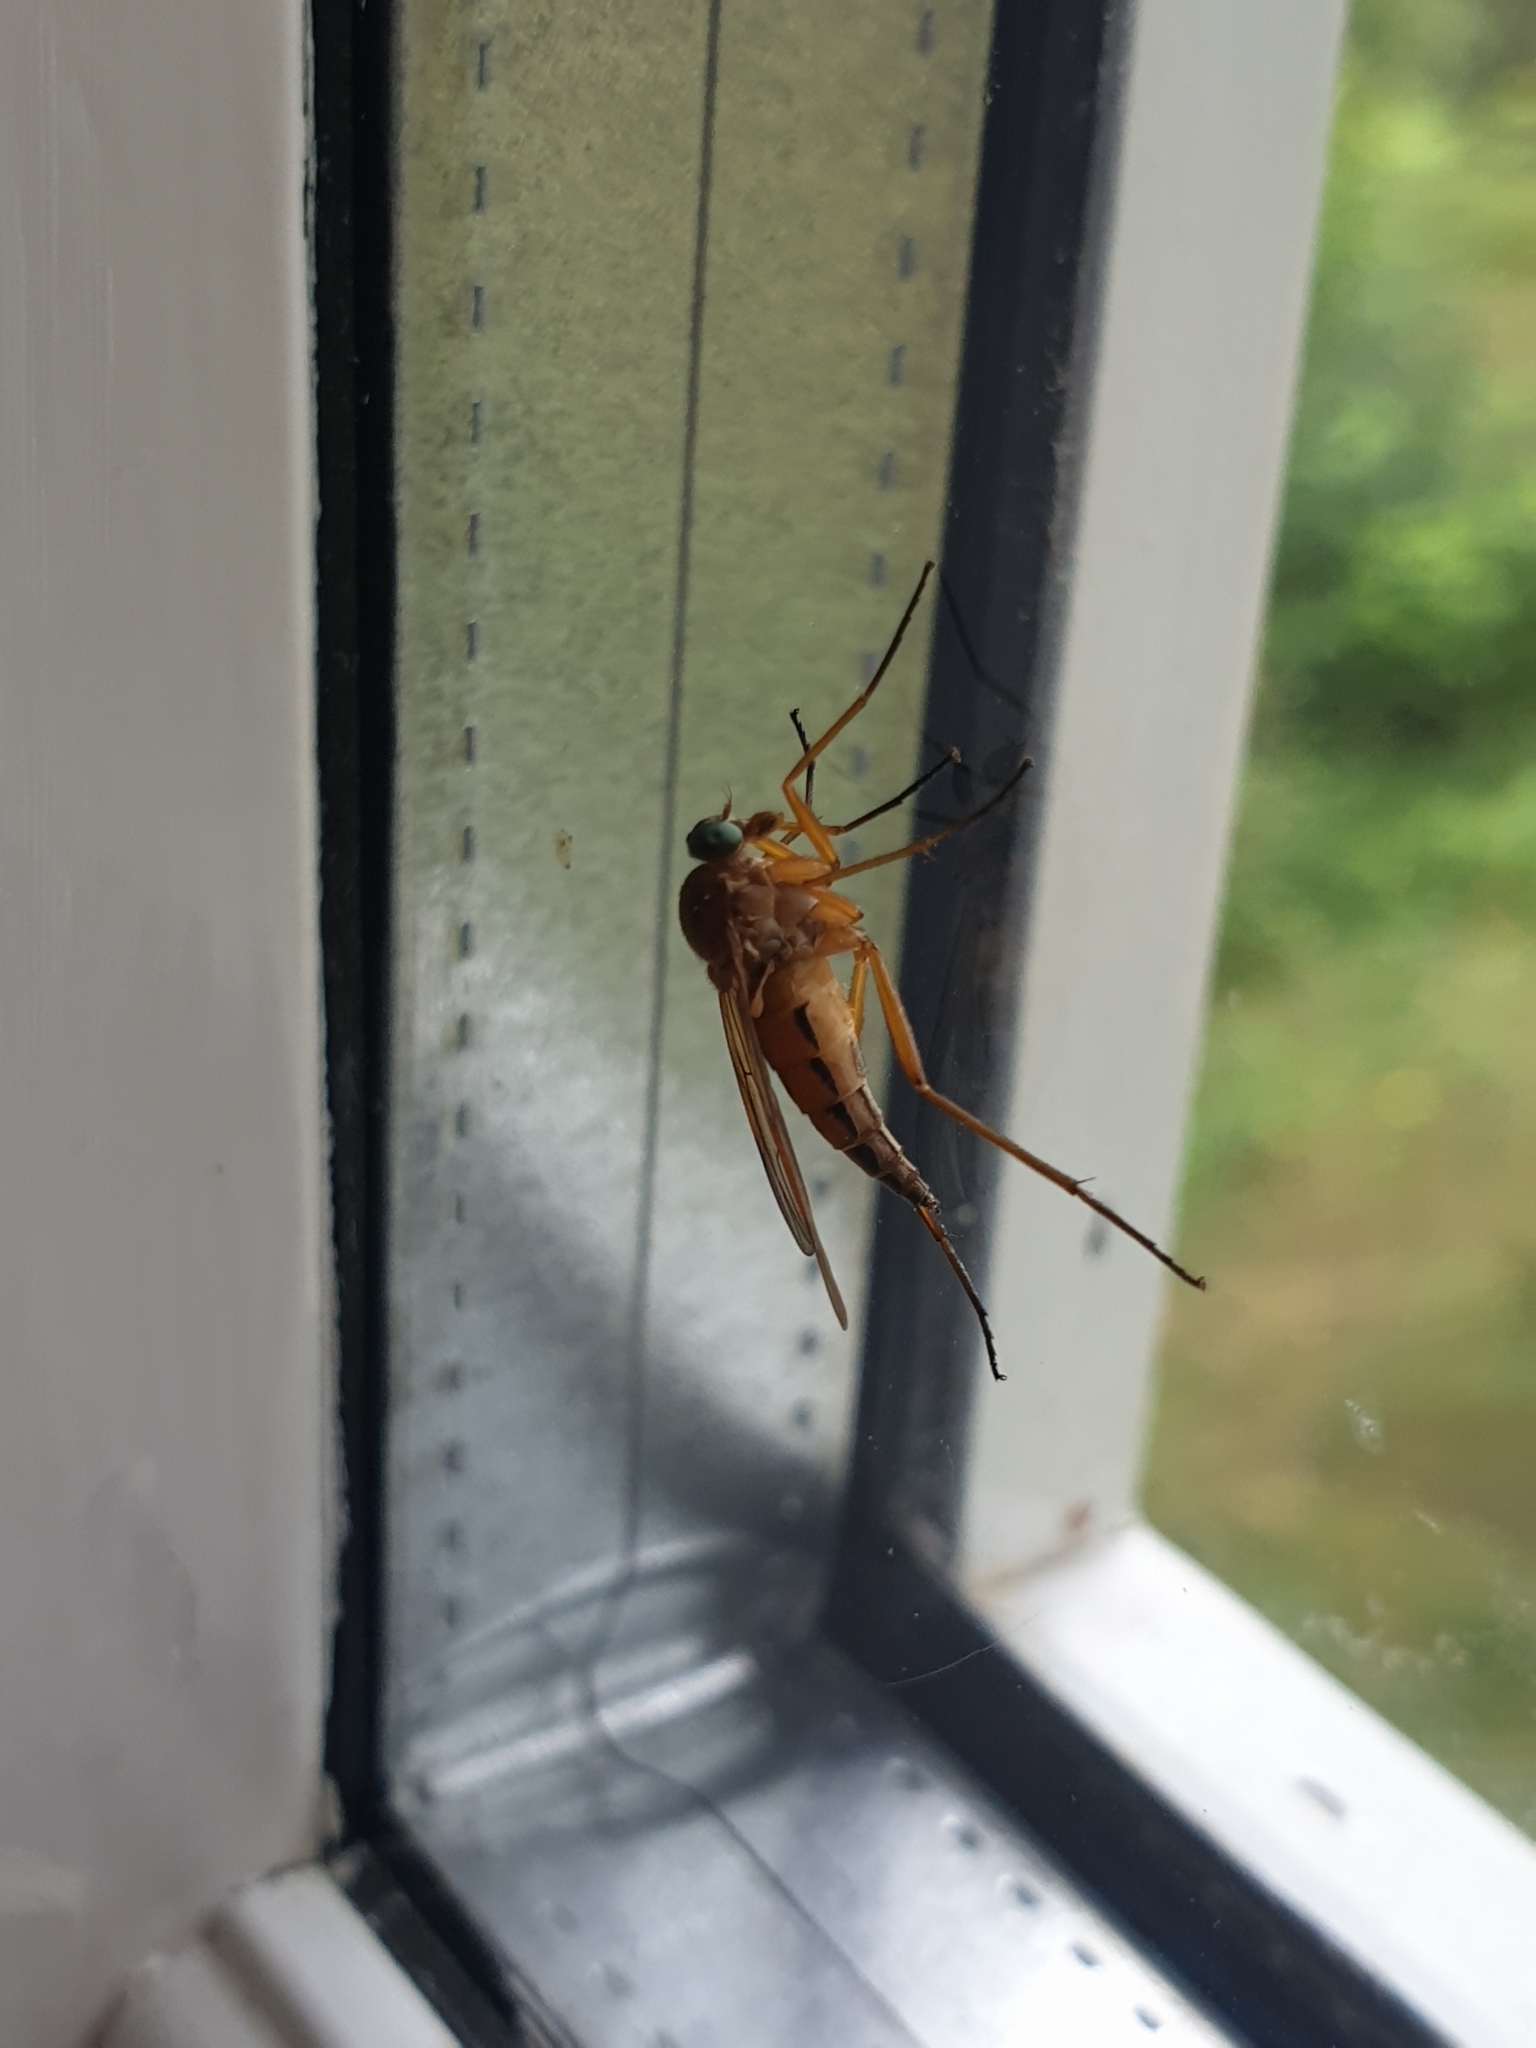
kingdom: Animalia
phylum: Arthropoda
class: Insecta
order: Diptera
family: Rhagionidae
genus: Rhagio
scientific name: Rhagio tringaria
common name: Marsh snipefly
